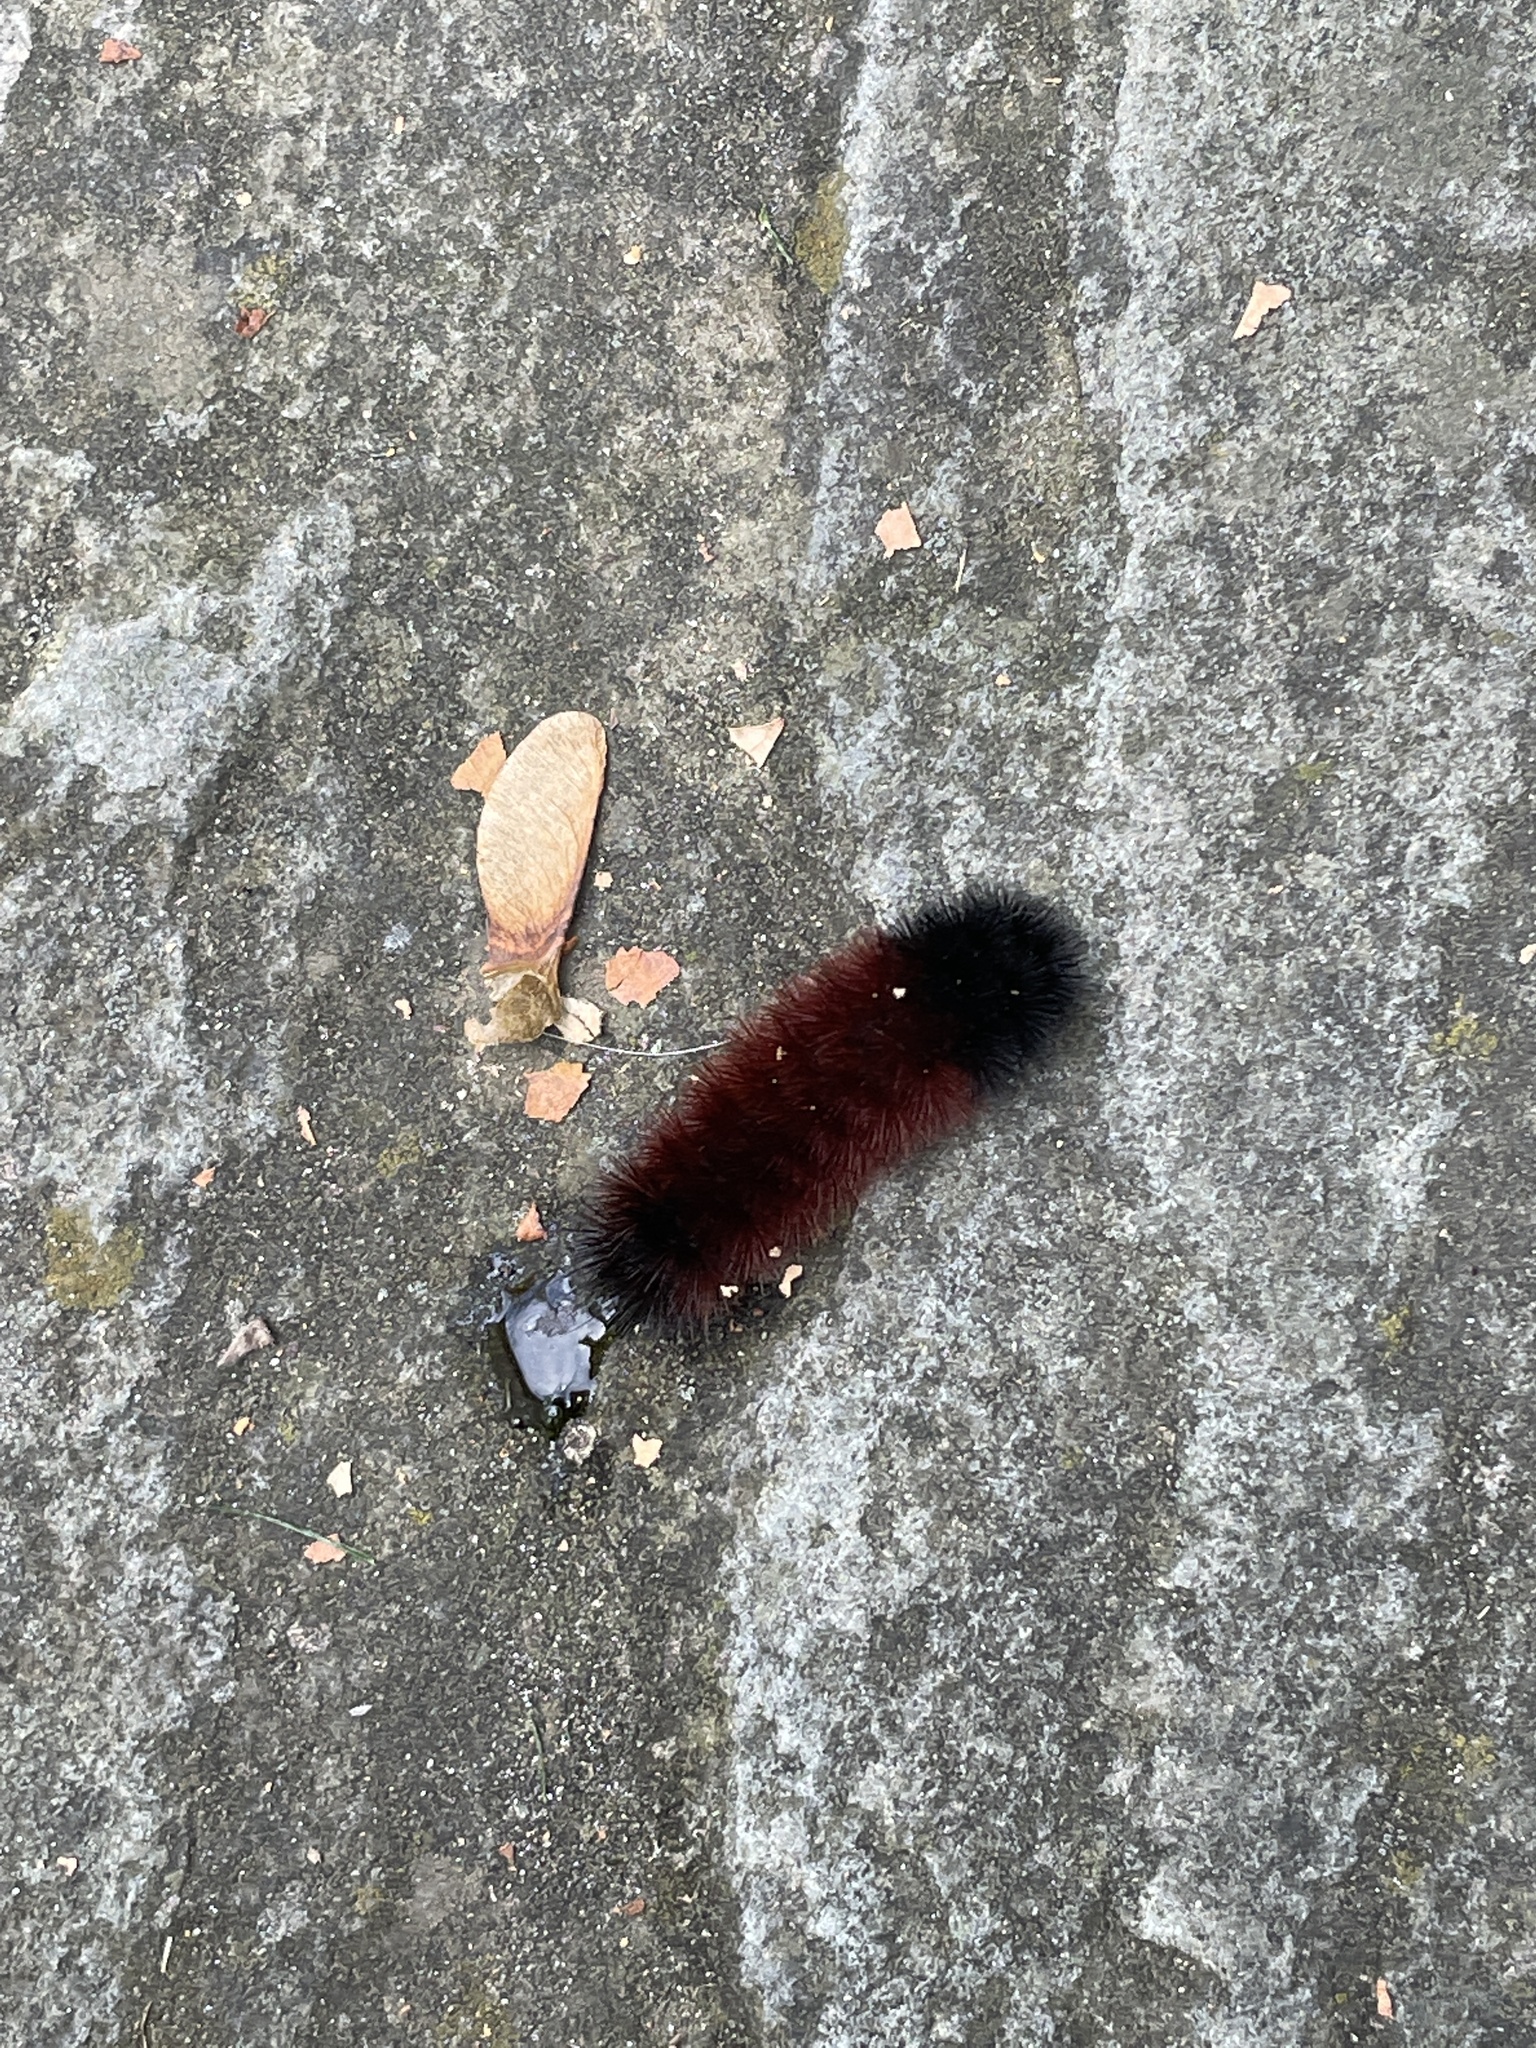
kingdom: Animalia
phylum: Arthropoda
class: Insecta
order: Lepidoptera
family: Erebidae
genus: Pyrrharctia
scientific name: Pyrrharctia isabella
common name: Isabella tiger moth
